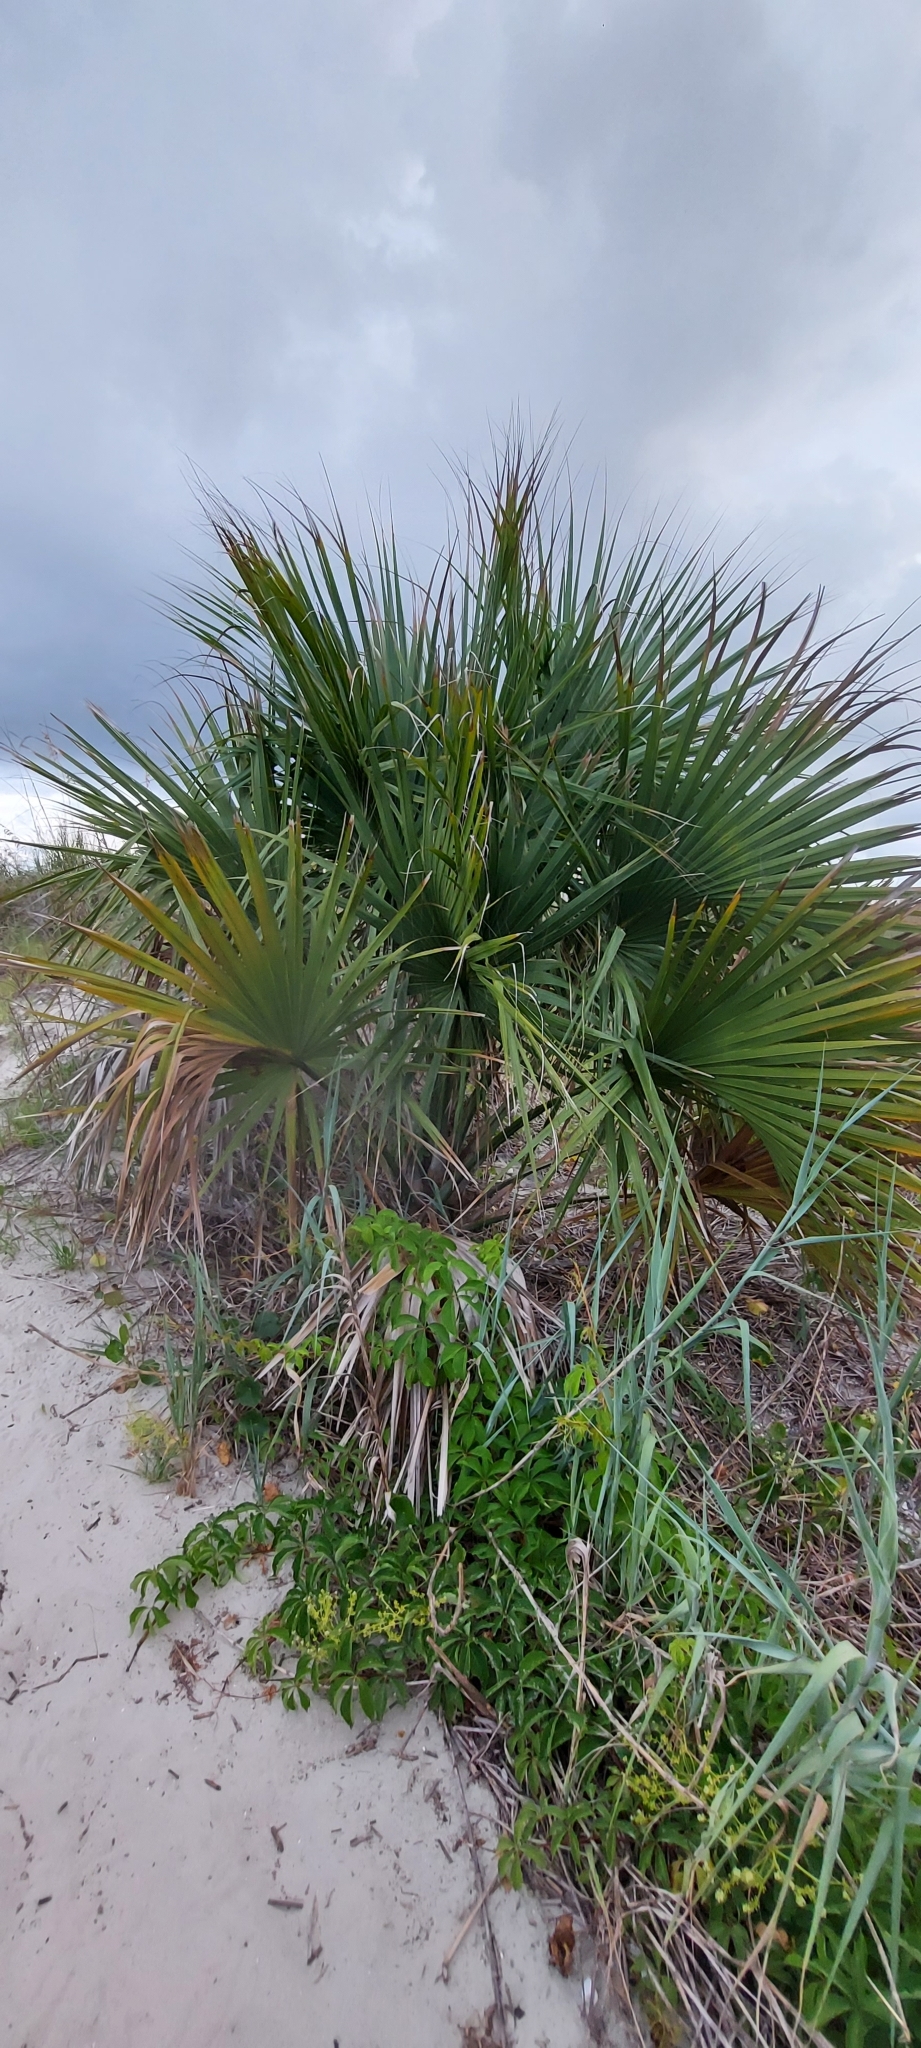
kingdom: Plantae
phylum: Tracheophyta
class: Liliopsida
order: Arecales
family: Arecaceae
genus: Sabal
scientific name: Sabal palmetto
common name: Blue palmetto
